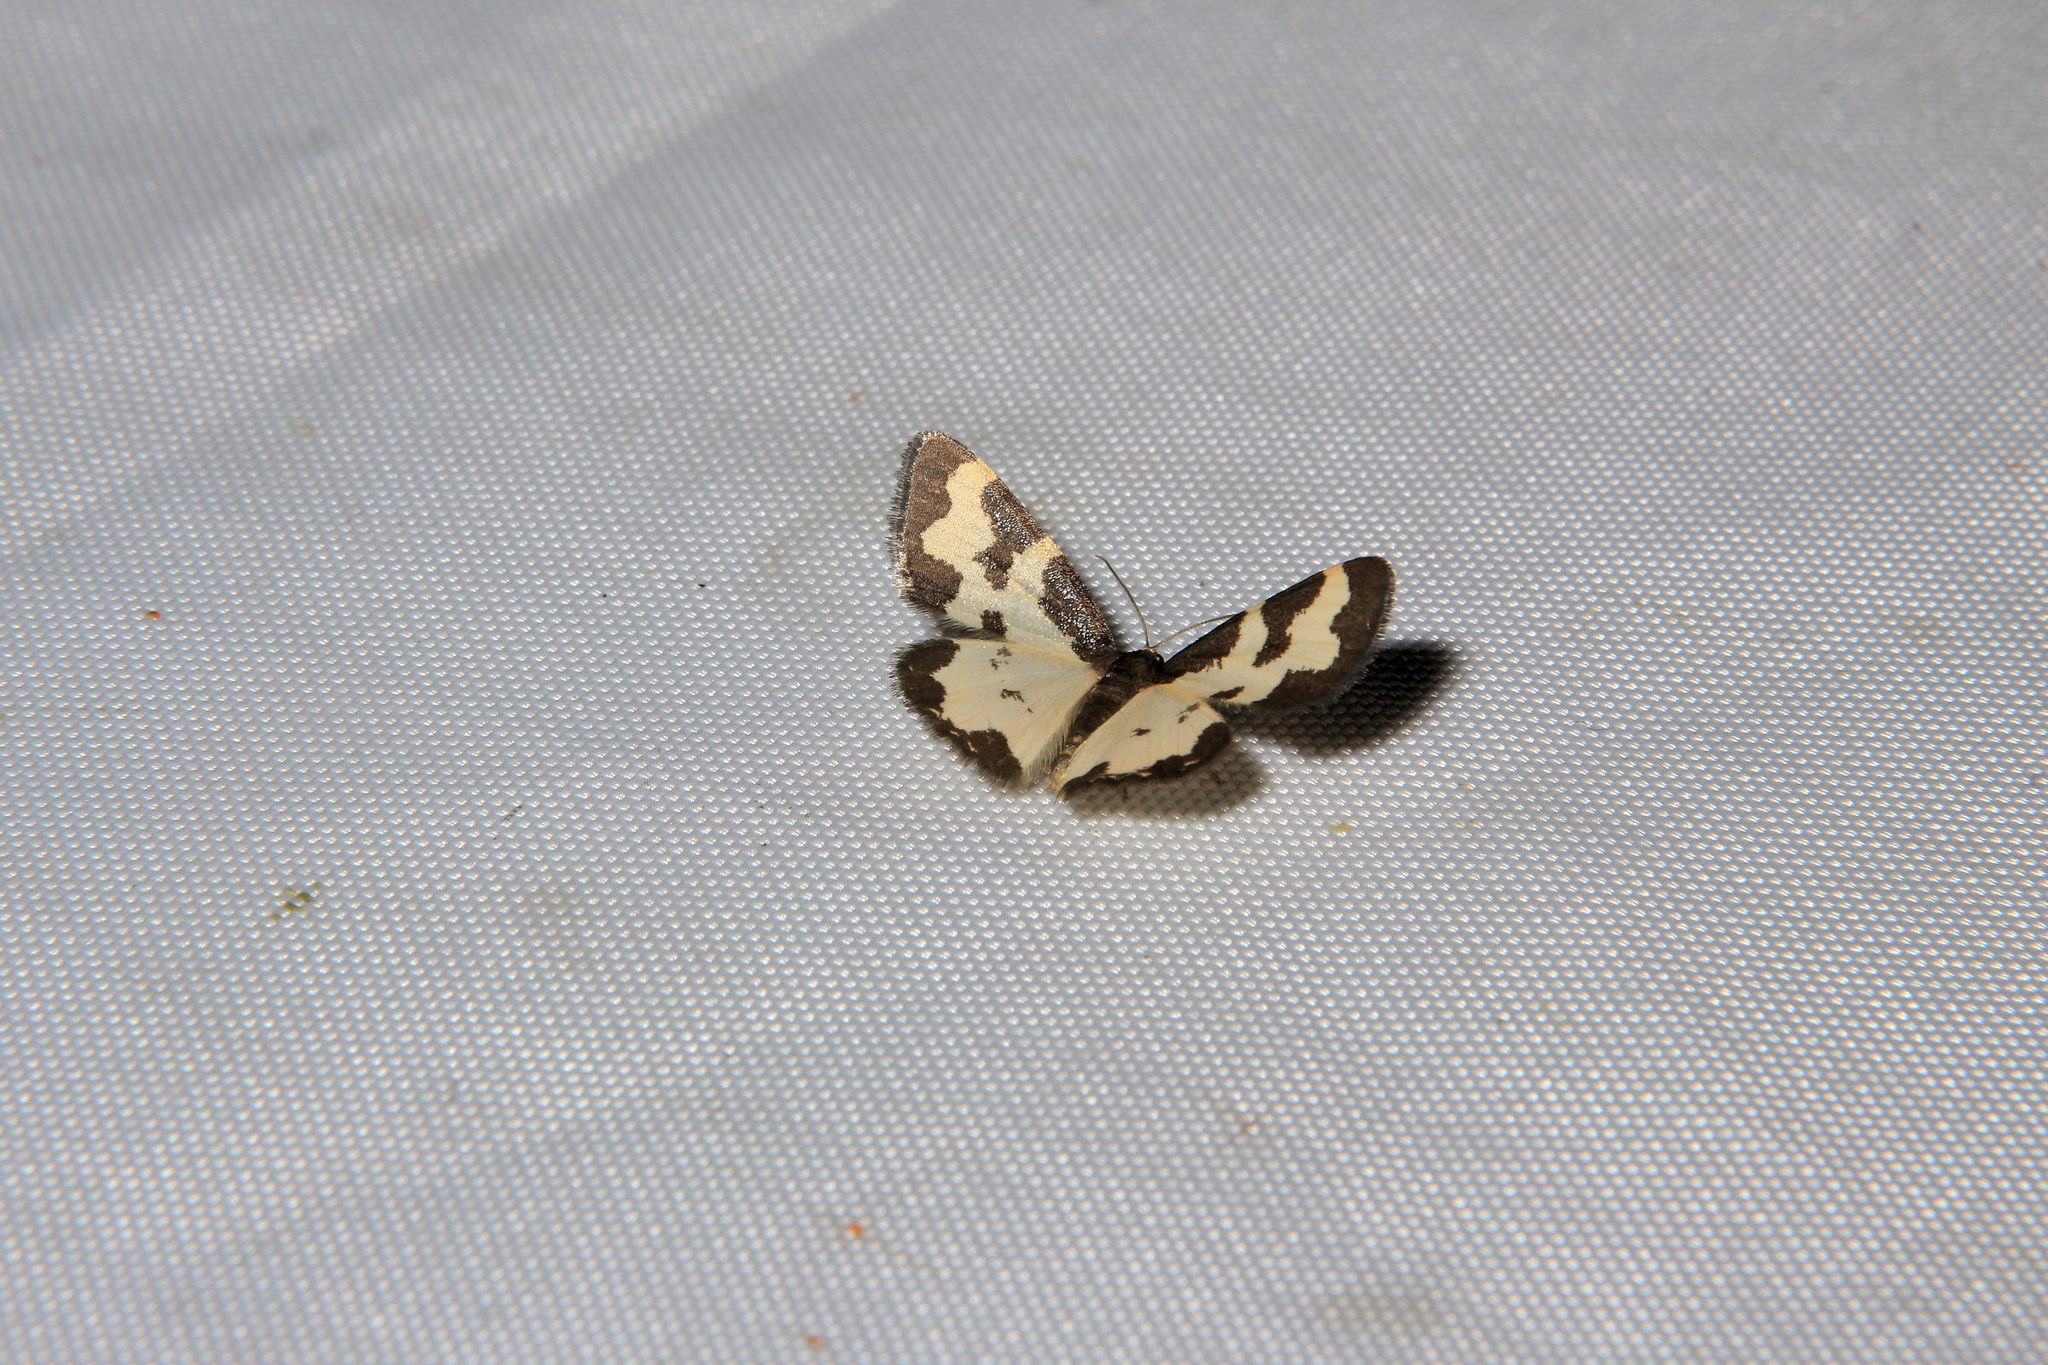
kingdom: Animalia
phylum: Arthropoda
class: Insecta
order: Lepidoptera
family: Geometridae
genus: Lomaspilis
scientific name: Lomaspilis marginata
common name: Clouded border
